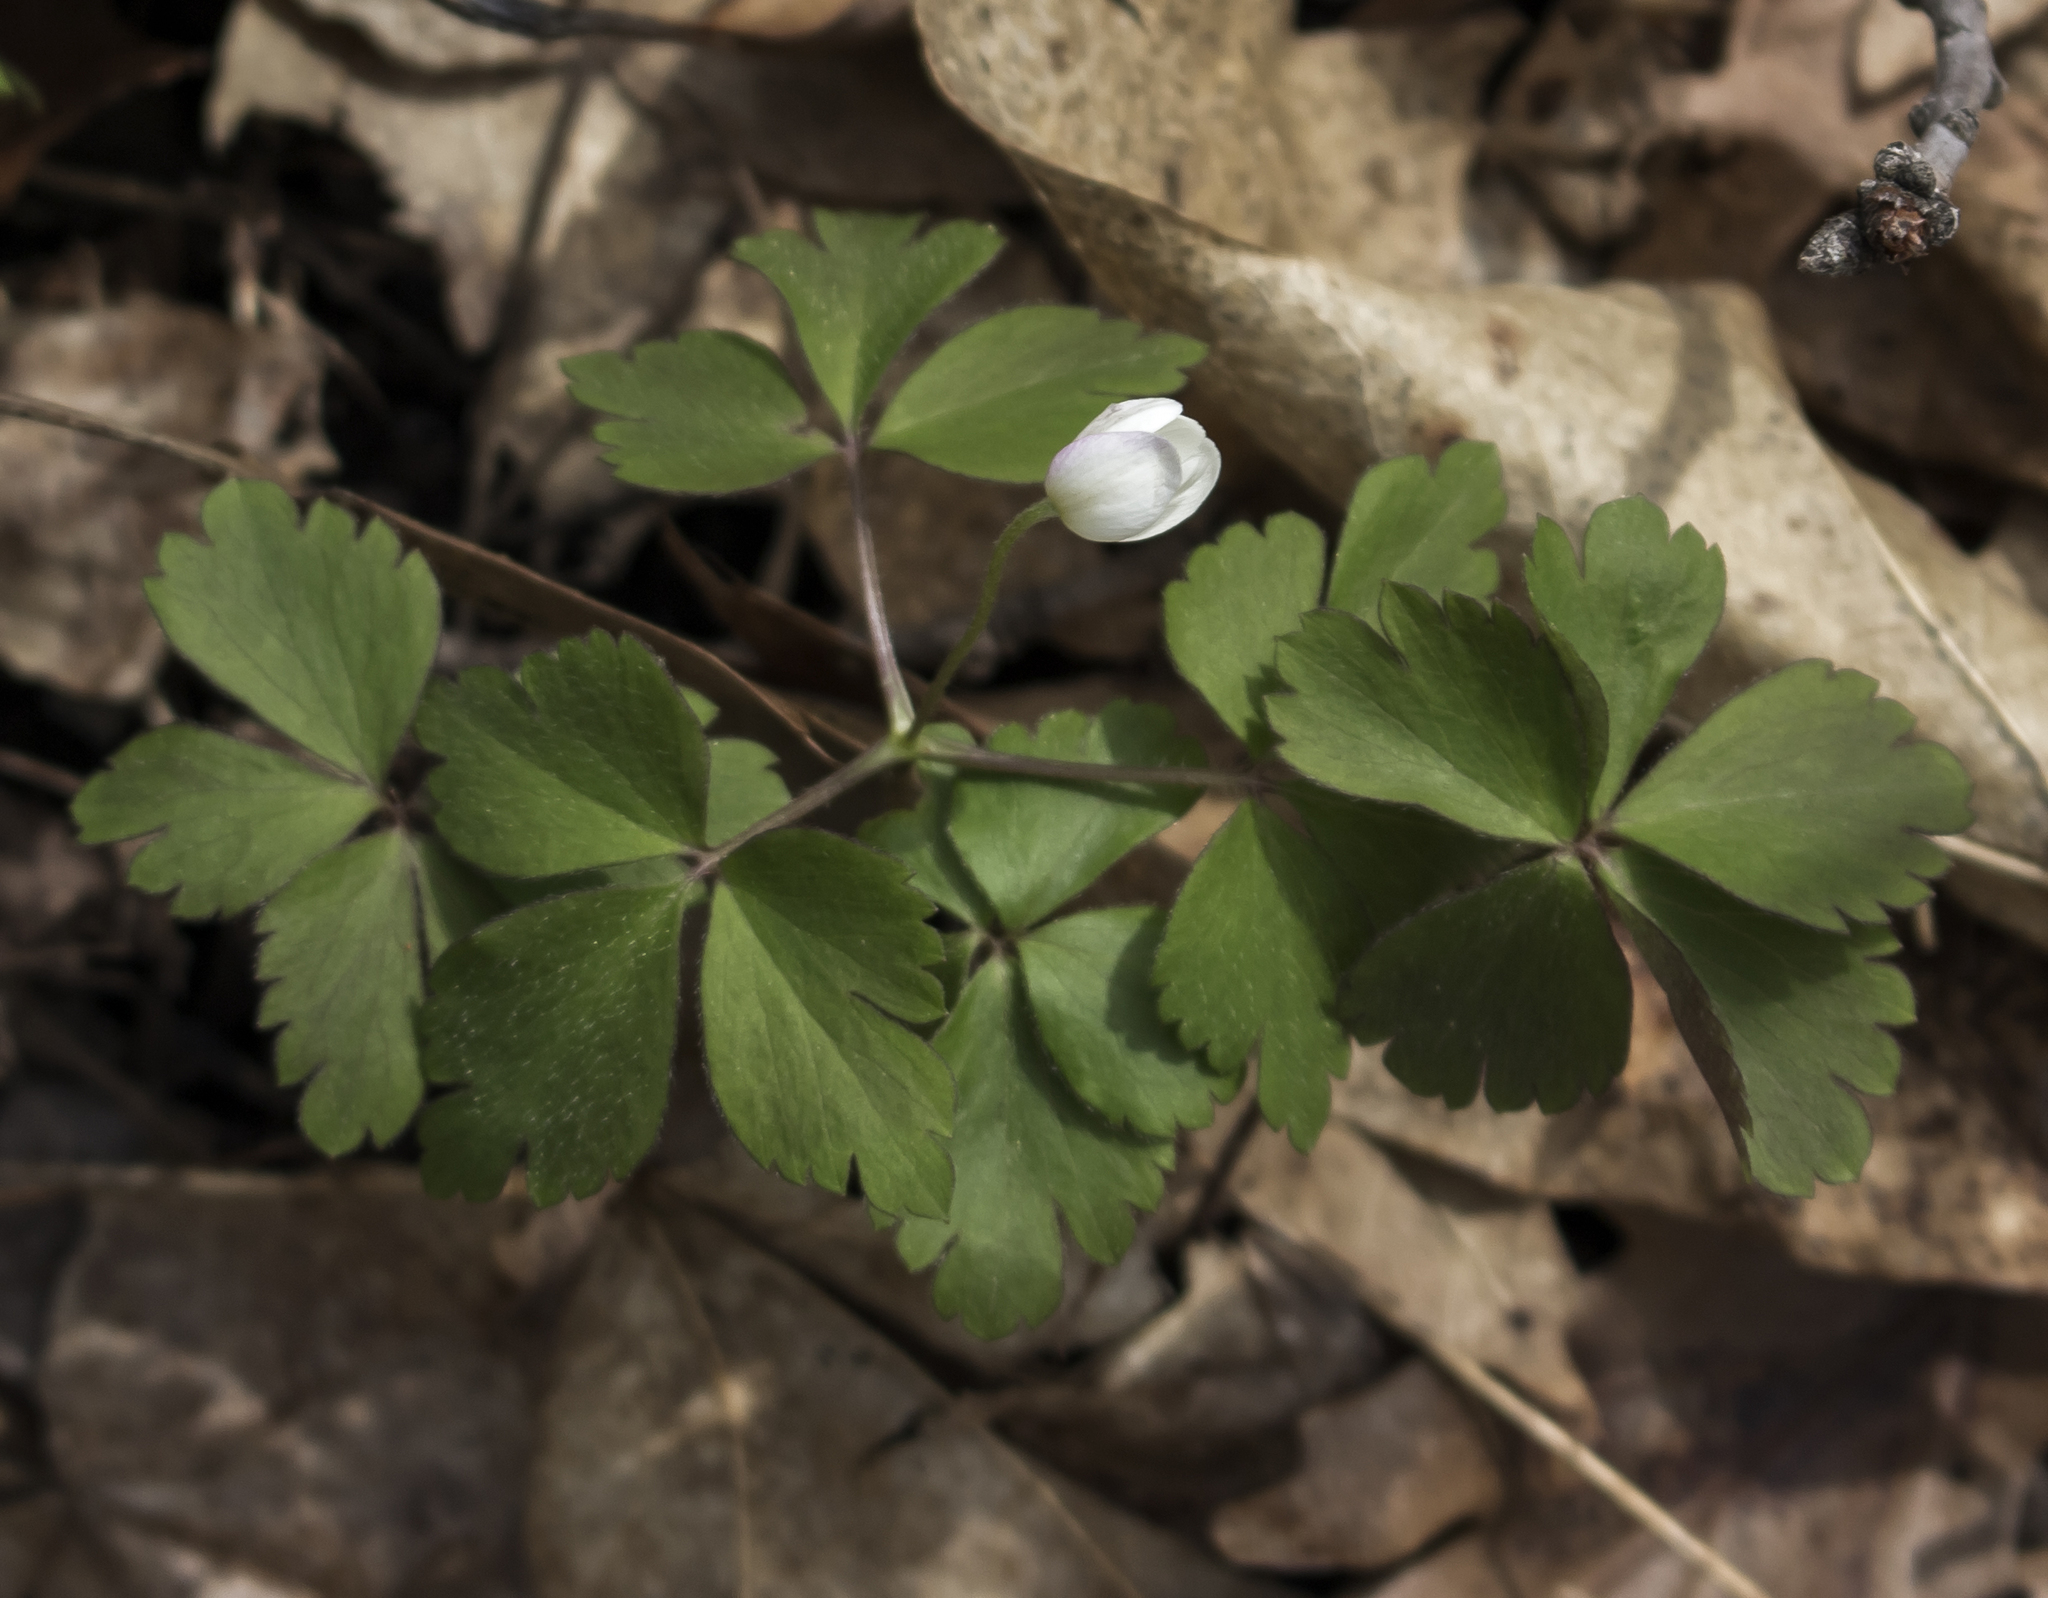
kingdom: Plantae
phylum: Tracheophyta
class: Magnoliopsida
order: Ranunculales
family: Ranunculaceae
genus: Anemone
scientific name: Anemone quinquefolia
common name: Wood anemone
